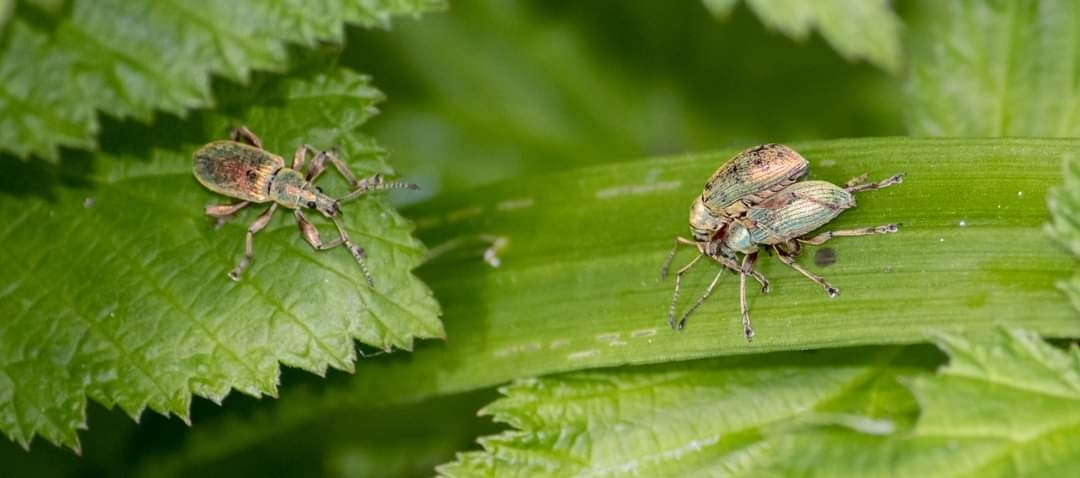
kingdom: Animalia
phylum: Arthropoda
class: Insecta
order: Coleoptera
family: Curculionidae
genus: Phyllobius
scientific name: Phyllobius pomaceus
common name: Green nettle weevil
